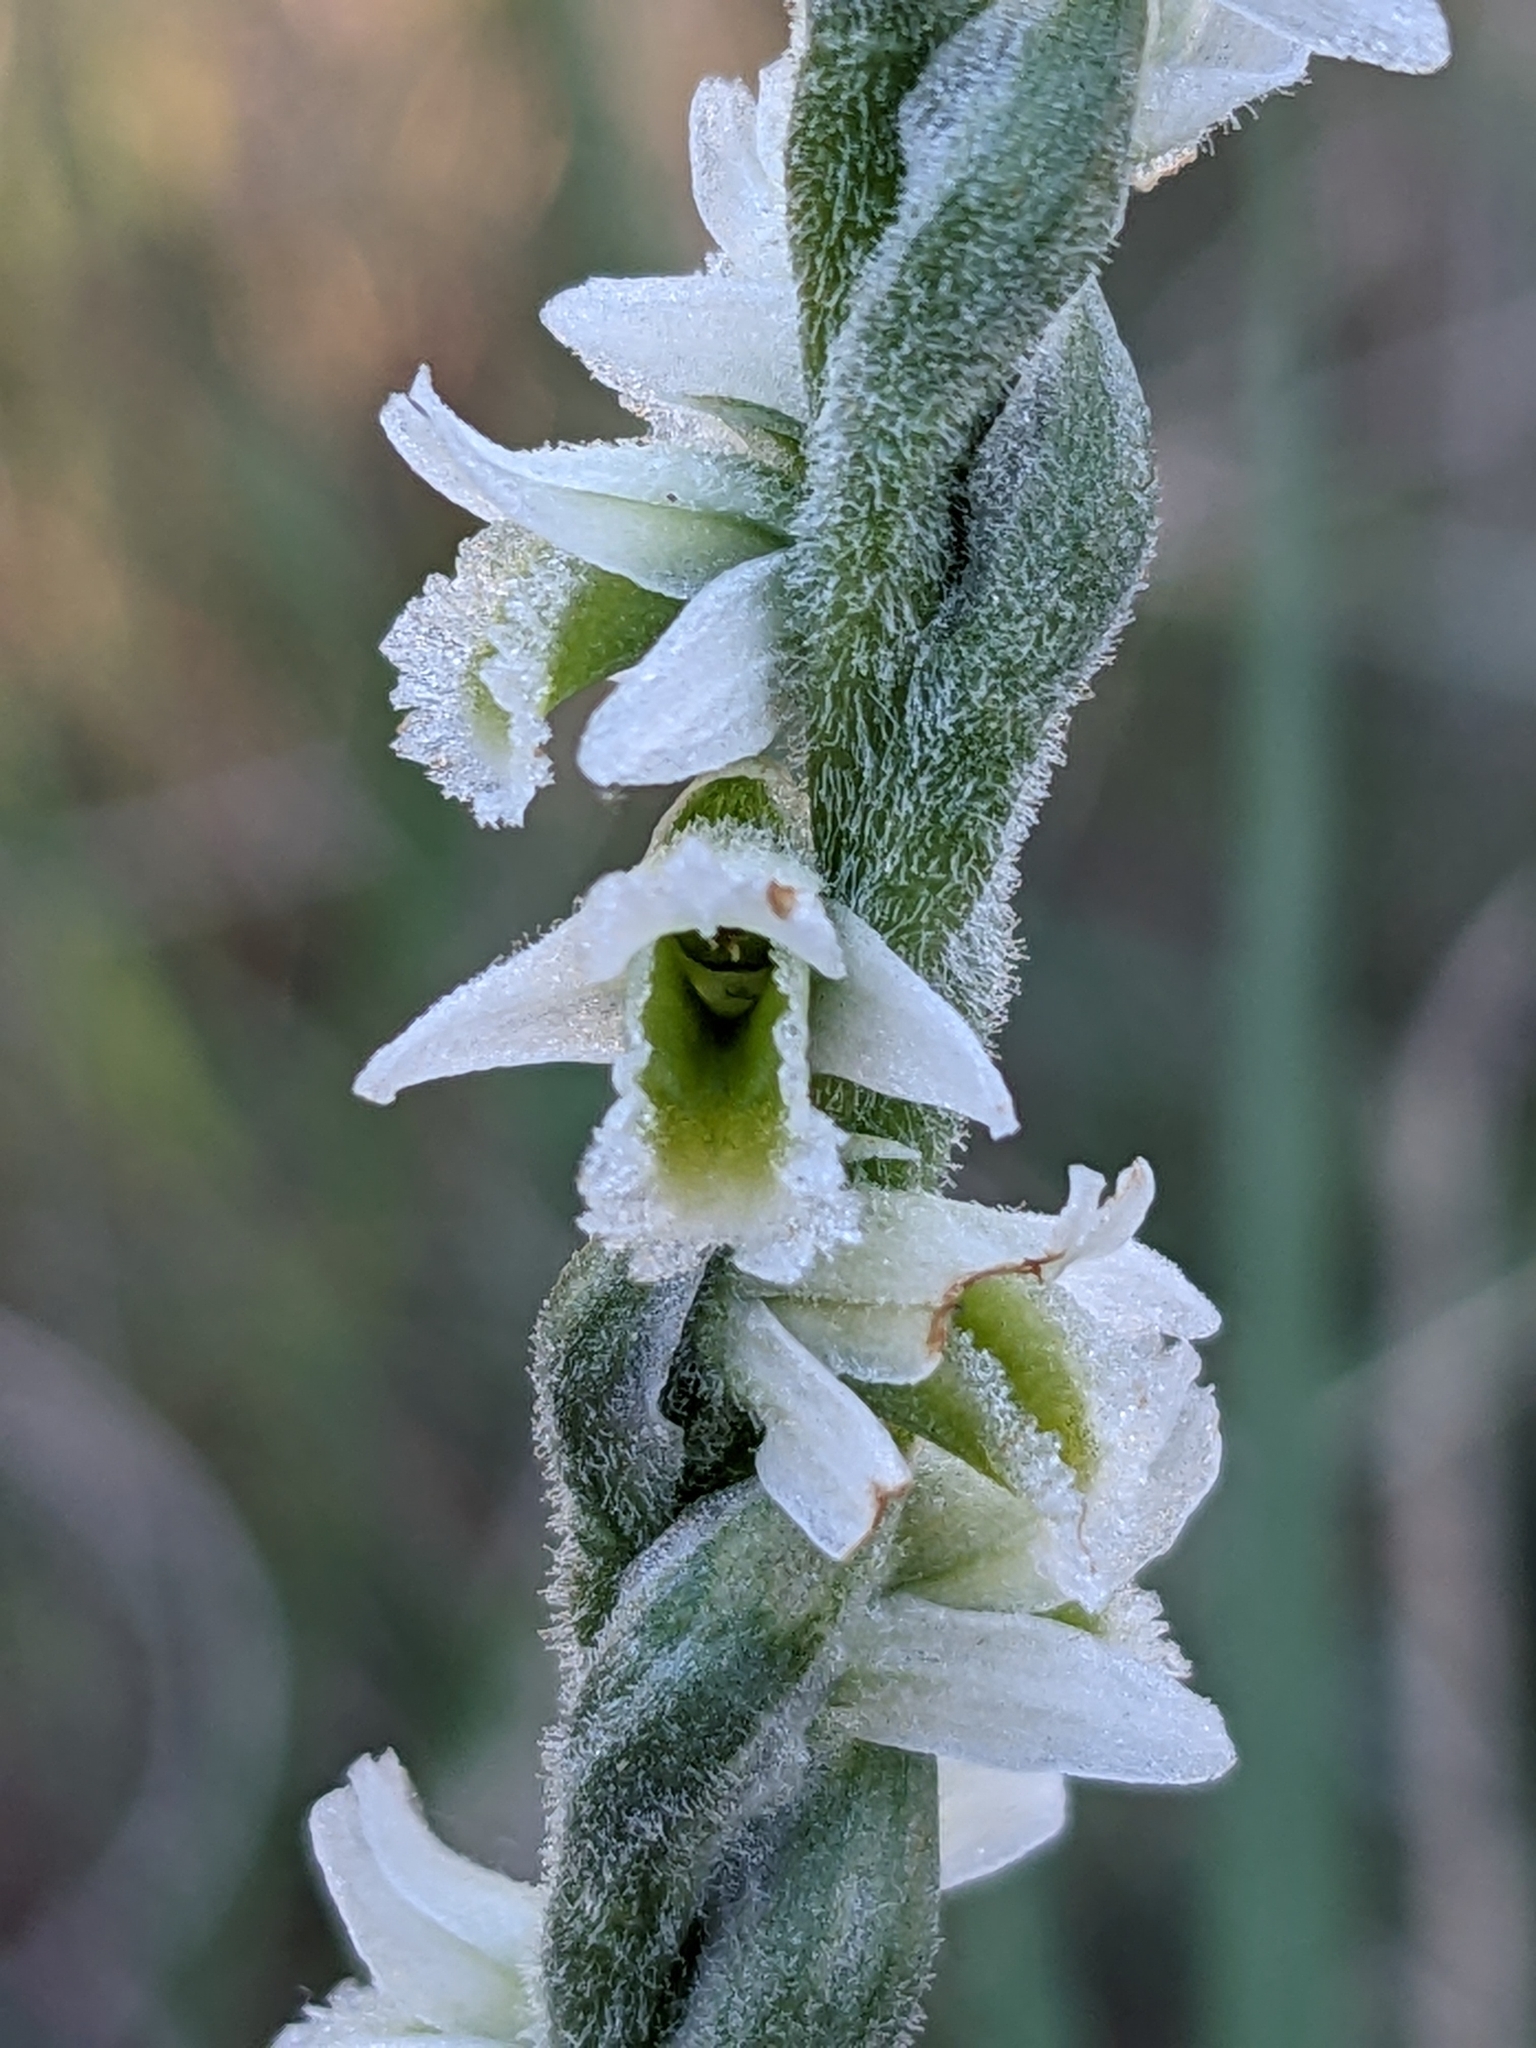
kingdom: Plantae
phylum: Tracheophyta
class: Liliopsida
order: Asparagales
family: Orchidaceae
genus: Spiranthes
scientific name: Spiranthes spiralis
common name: Autumn lady's-tresses
